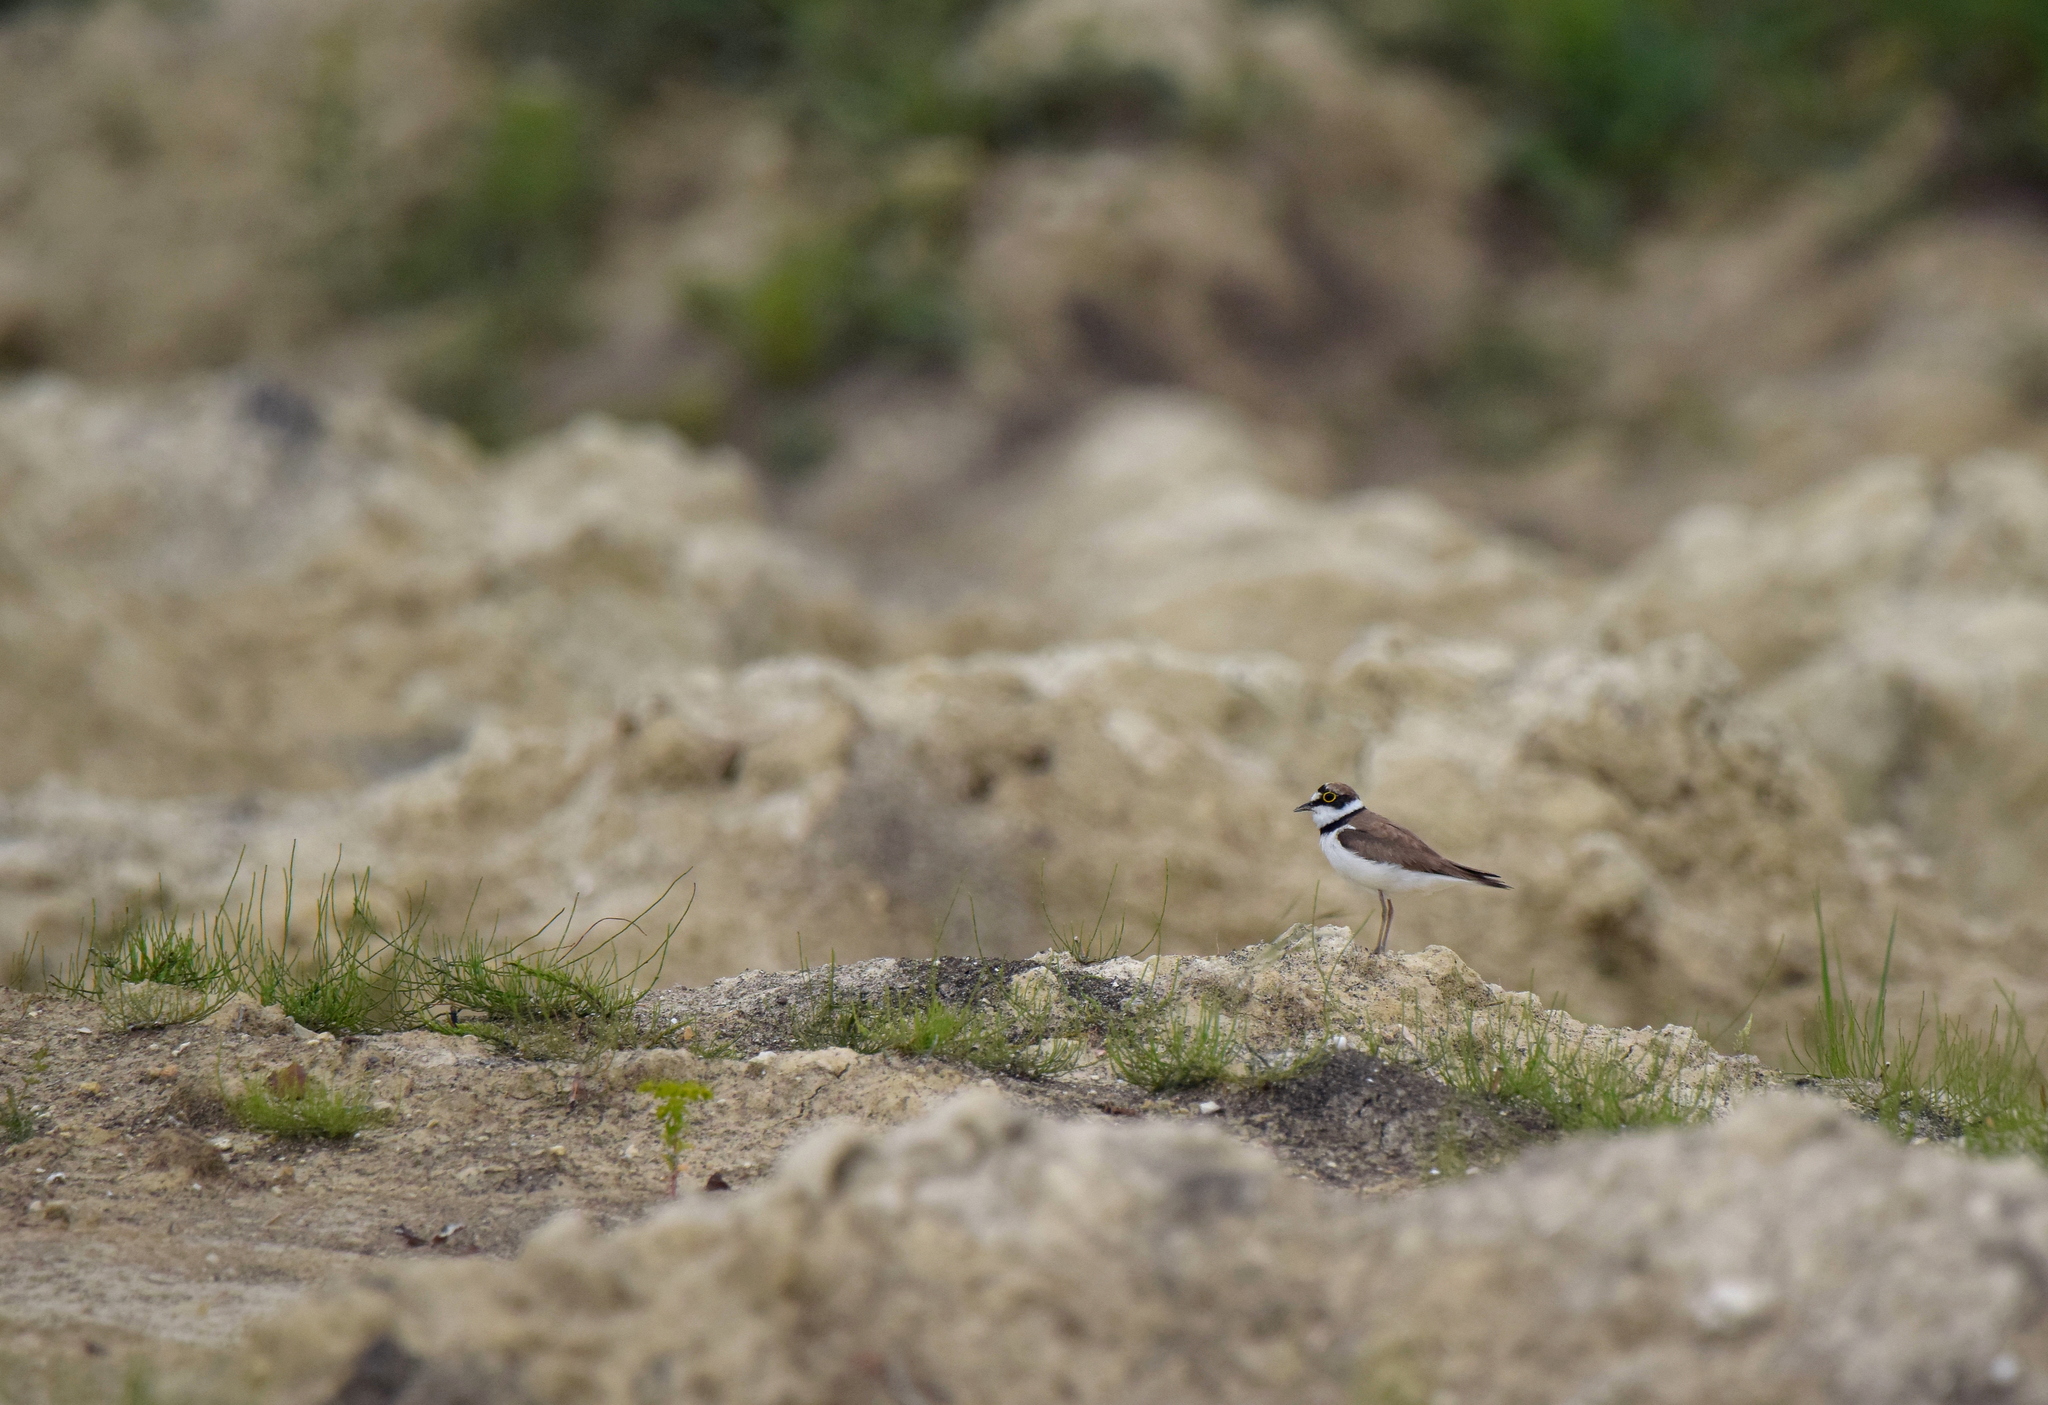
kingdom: Animalia
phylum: Chordata
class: Aves
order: Charadriiformes
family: Charadriidae
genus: Charadrius
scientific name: Charadrius dubius
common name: Little ringed plover
